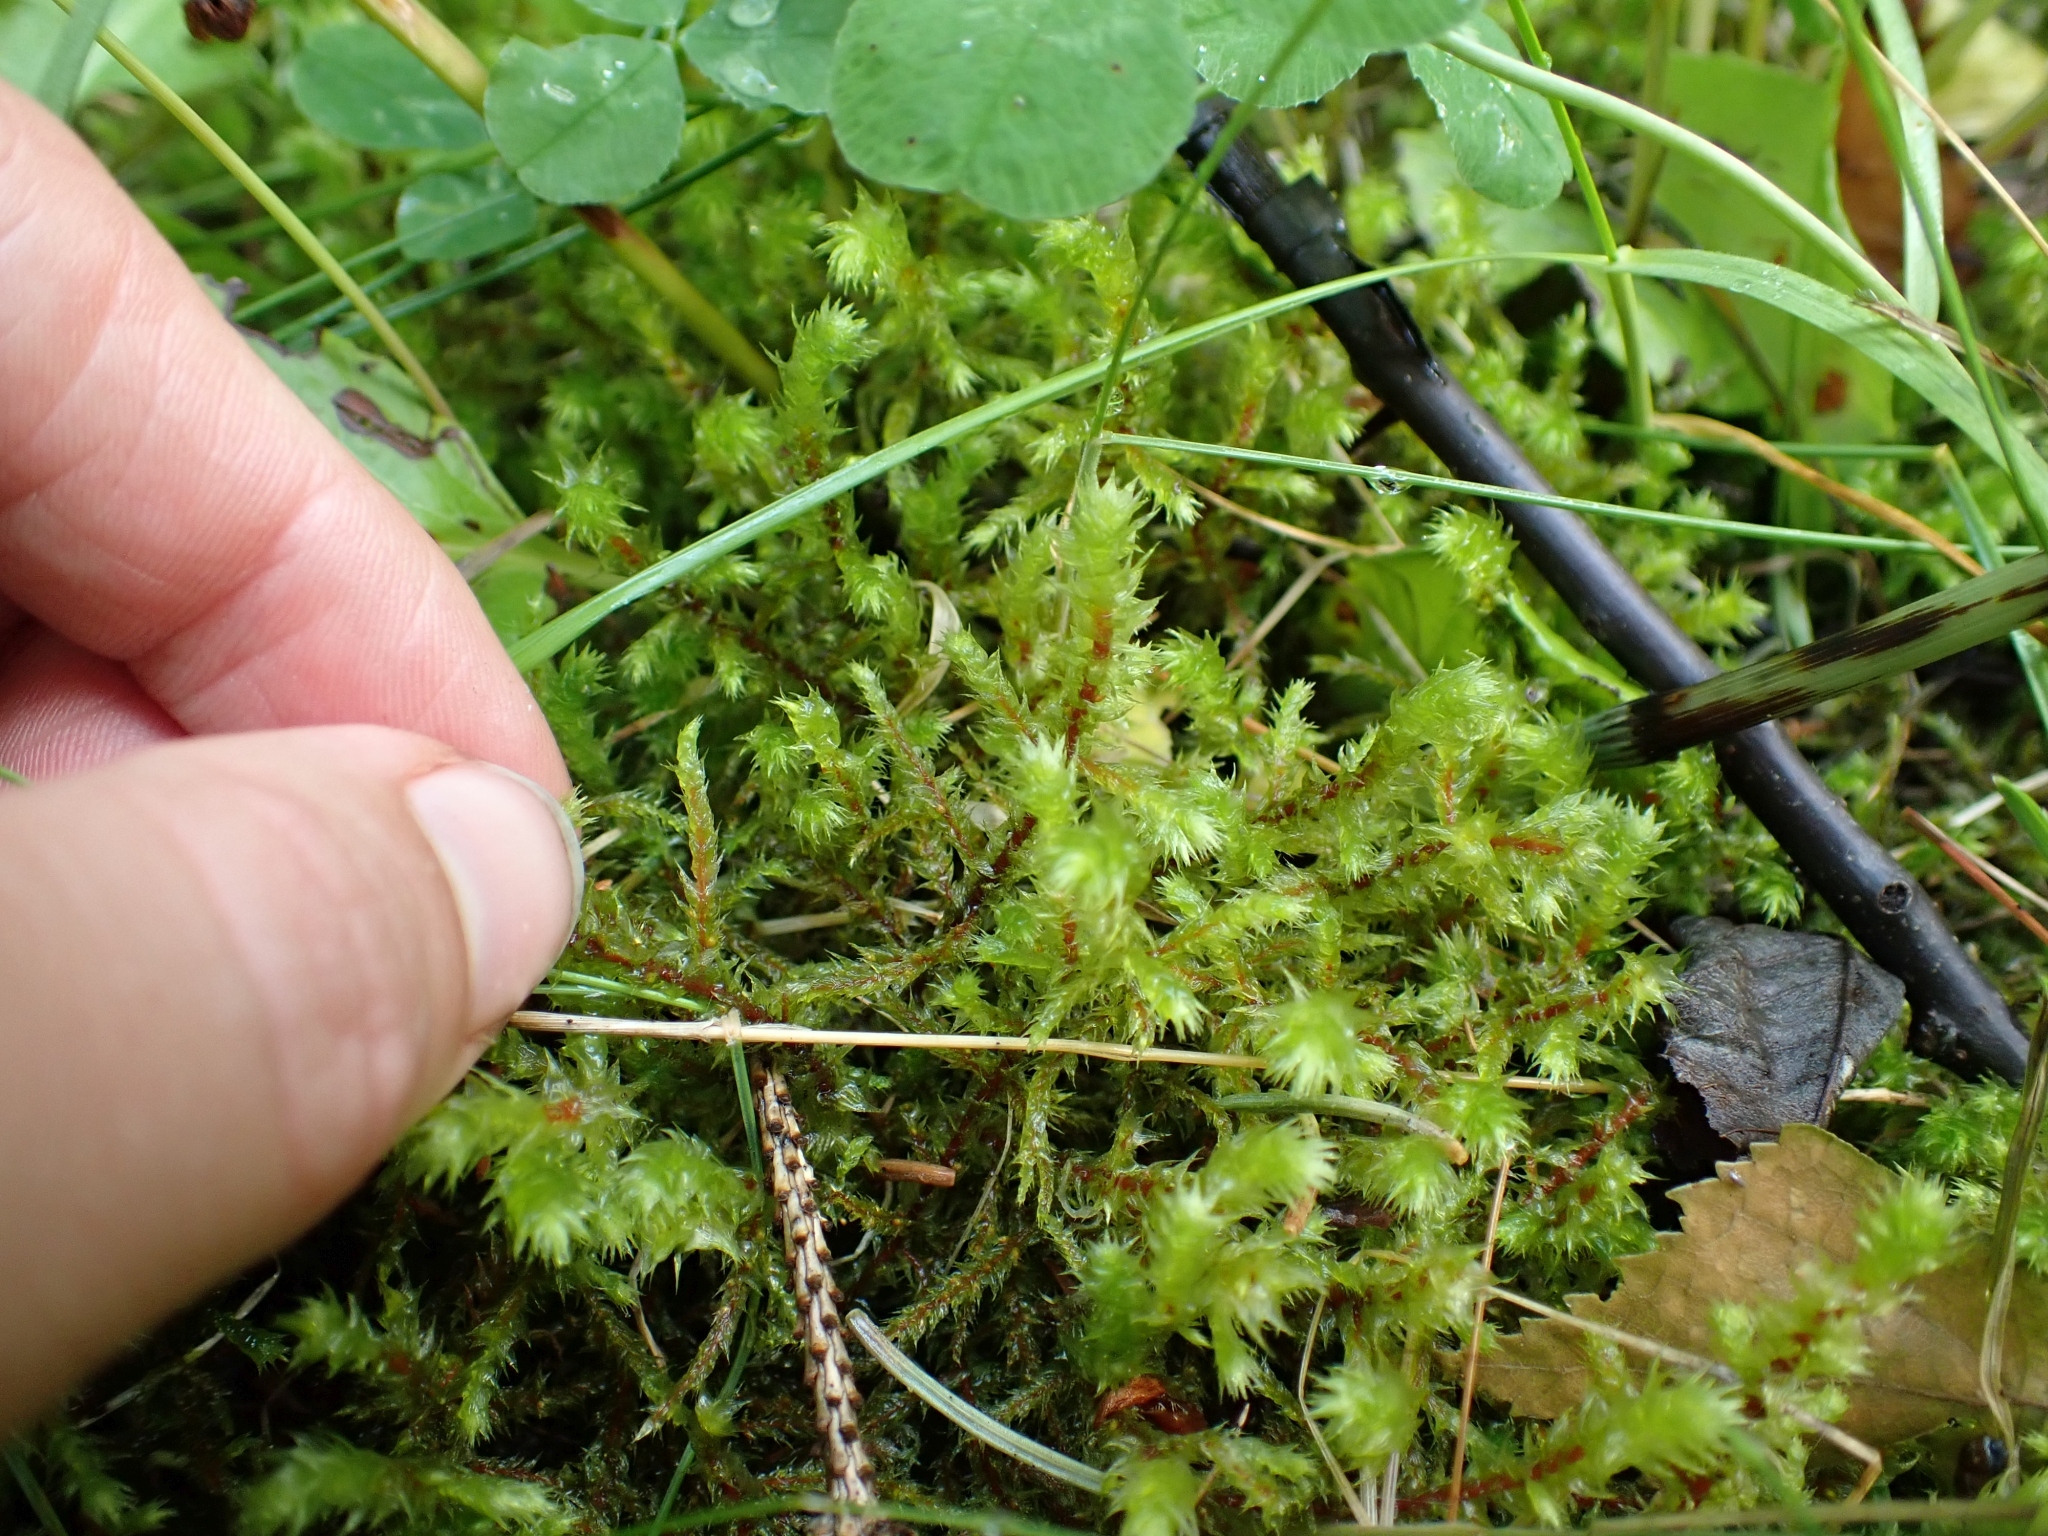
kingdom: Plantae
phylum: Bryophyta
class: Bryopsida
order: Hypnales
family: Hylocomiaceae
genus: Hylocomiadelphus
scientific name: Hylocomiadelphus triquetrus
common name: Rough goose neck moss
